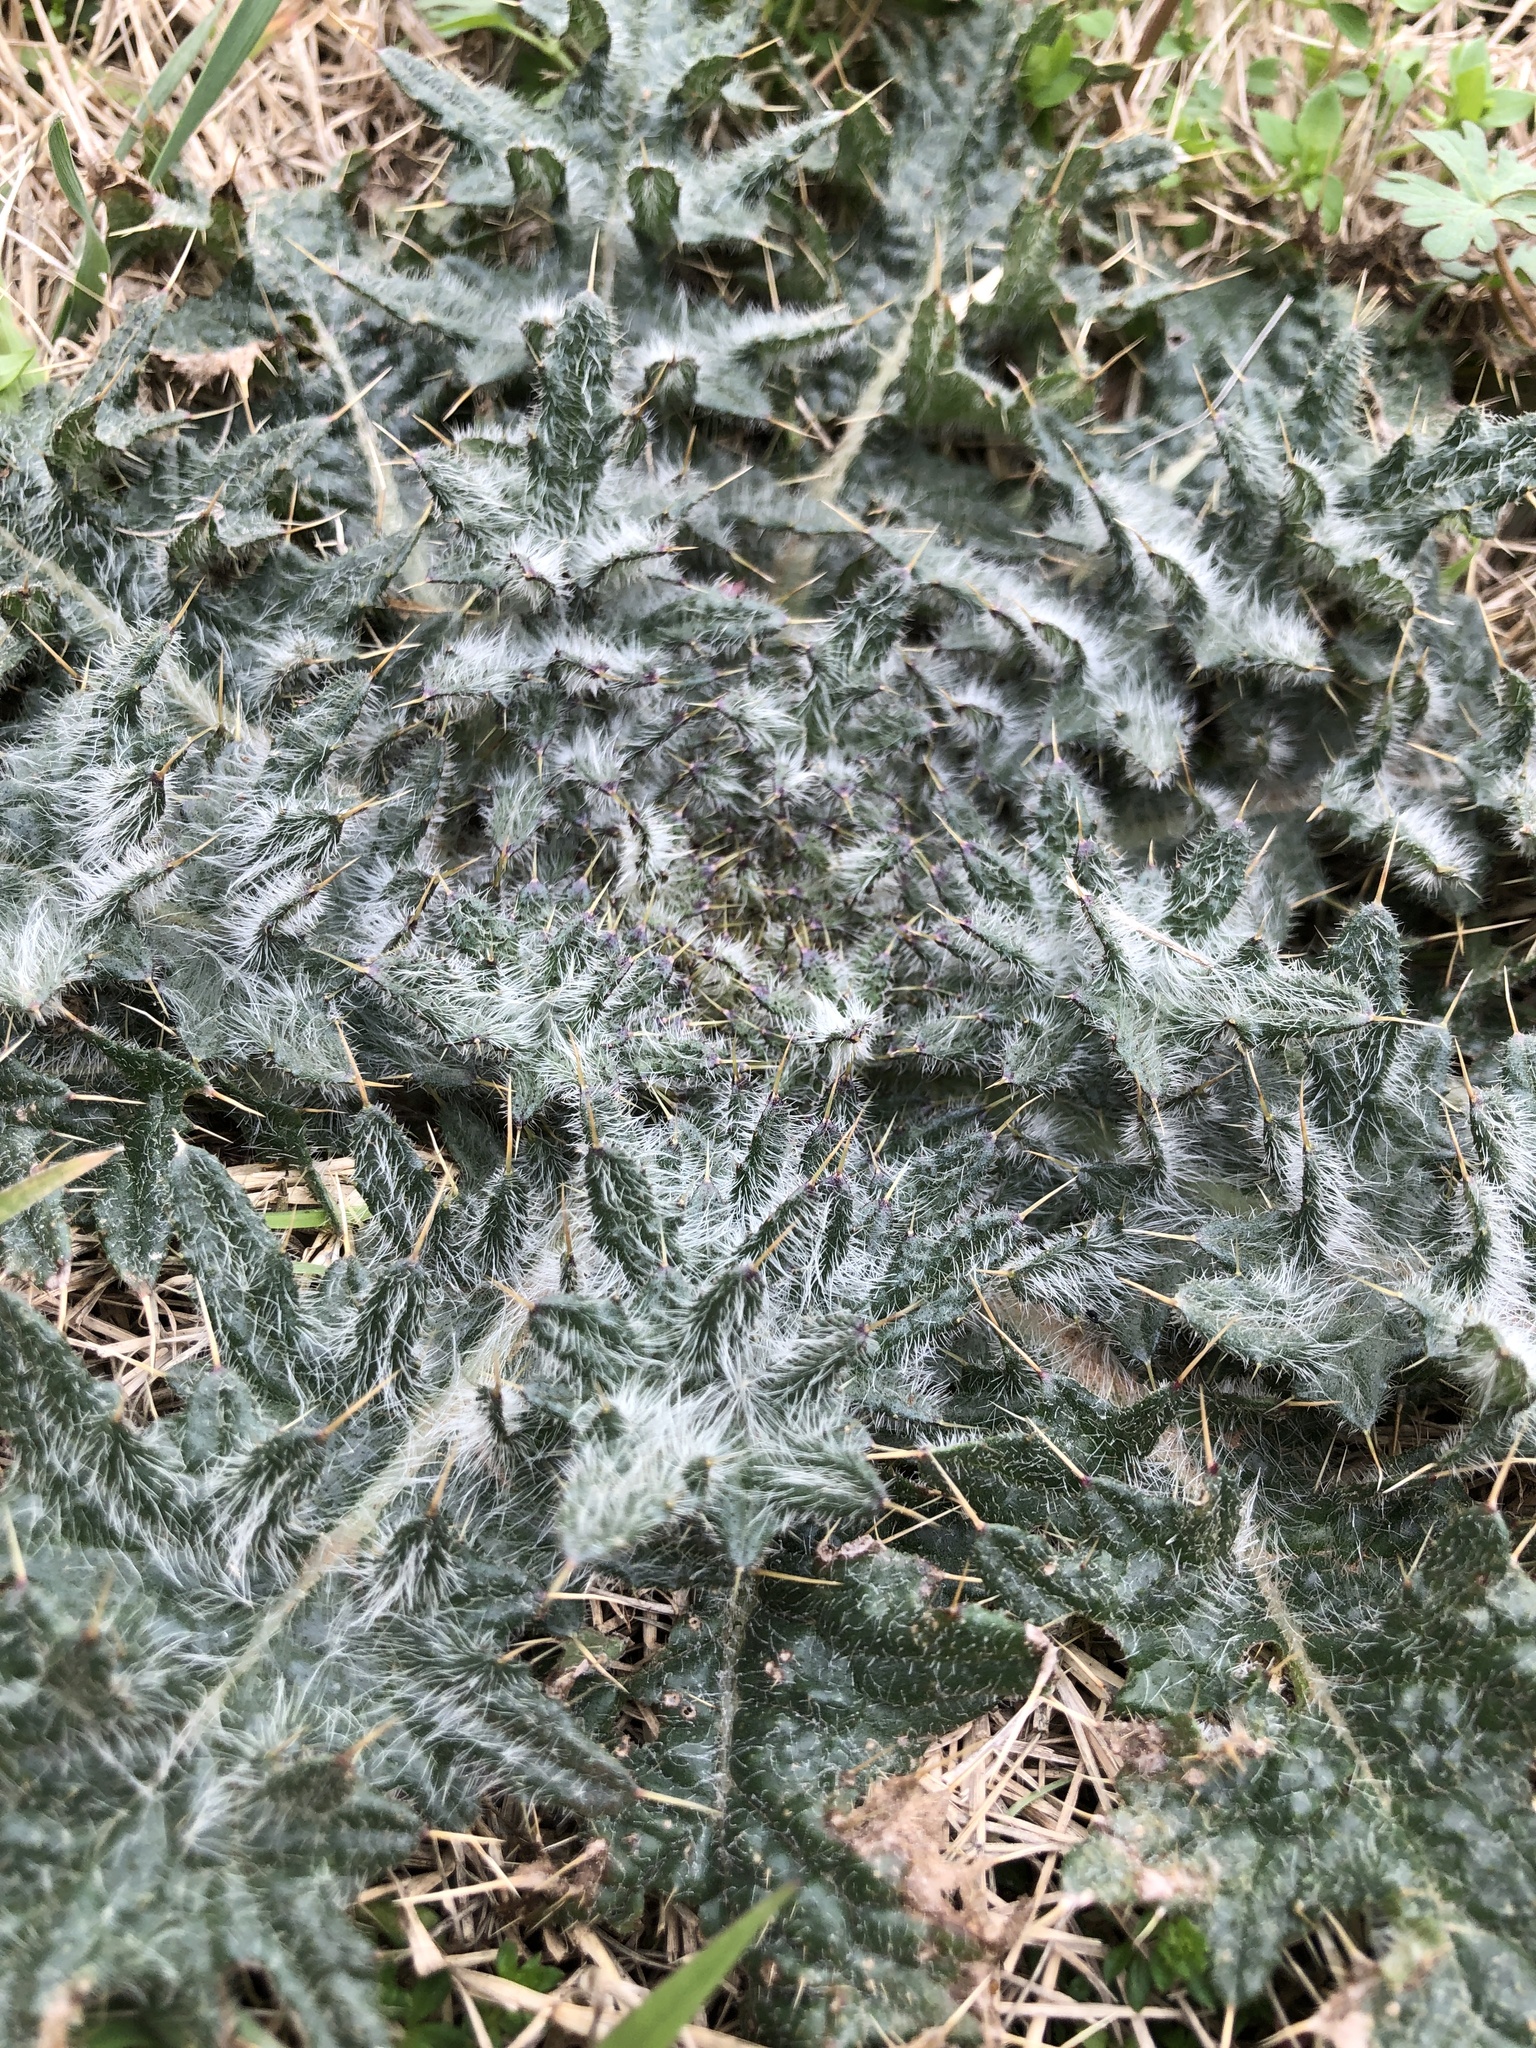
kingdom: Plantae
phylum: Tracheophyta
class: Magnoliopsida
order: Asterales
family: Asteraceae
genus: Cirsium
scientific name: Cirsium vulgare
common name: Bull thistle
